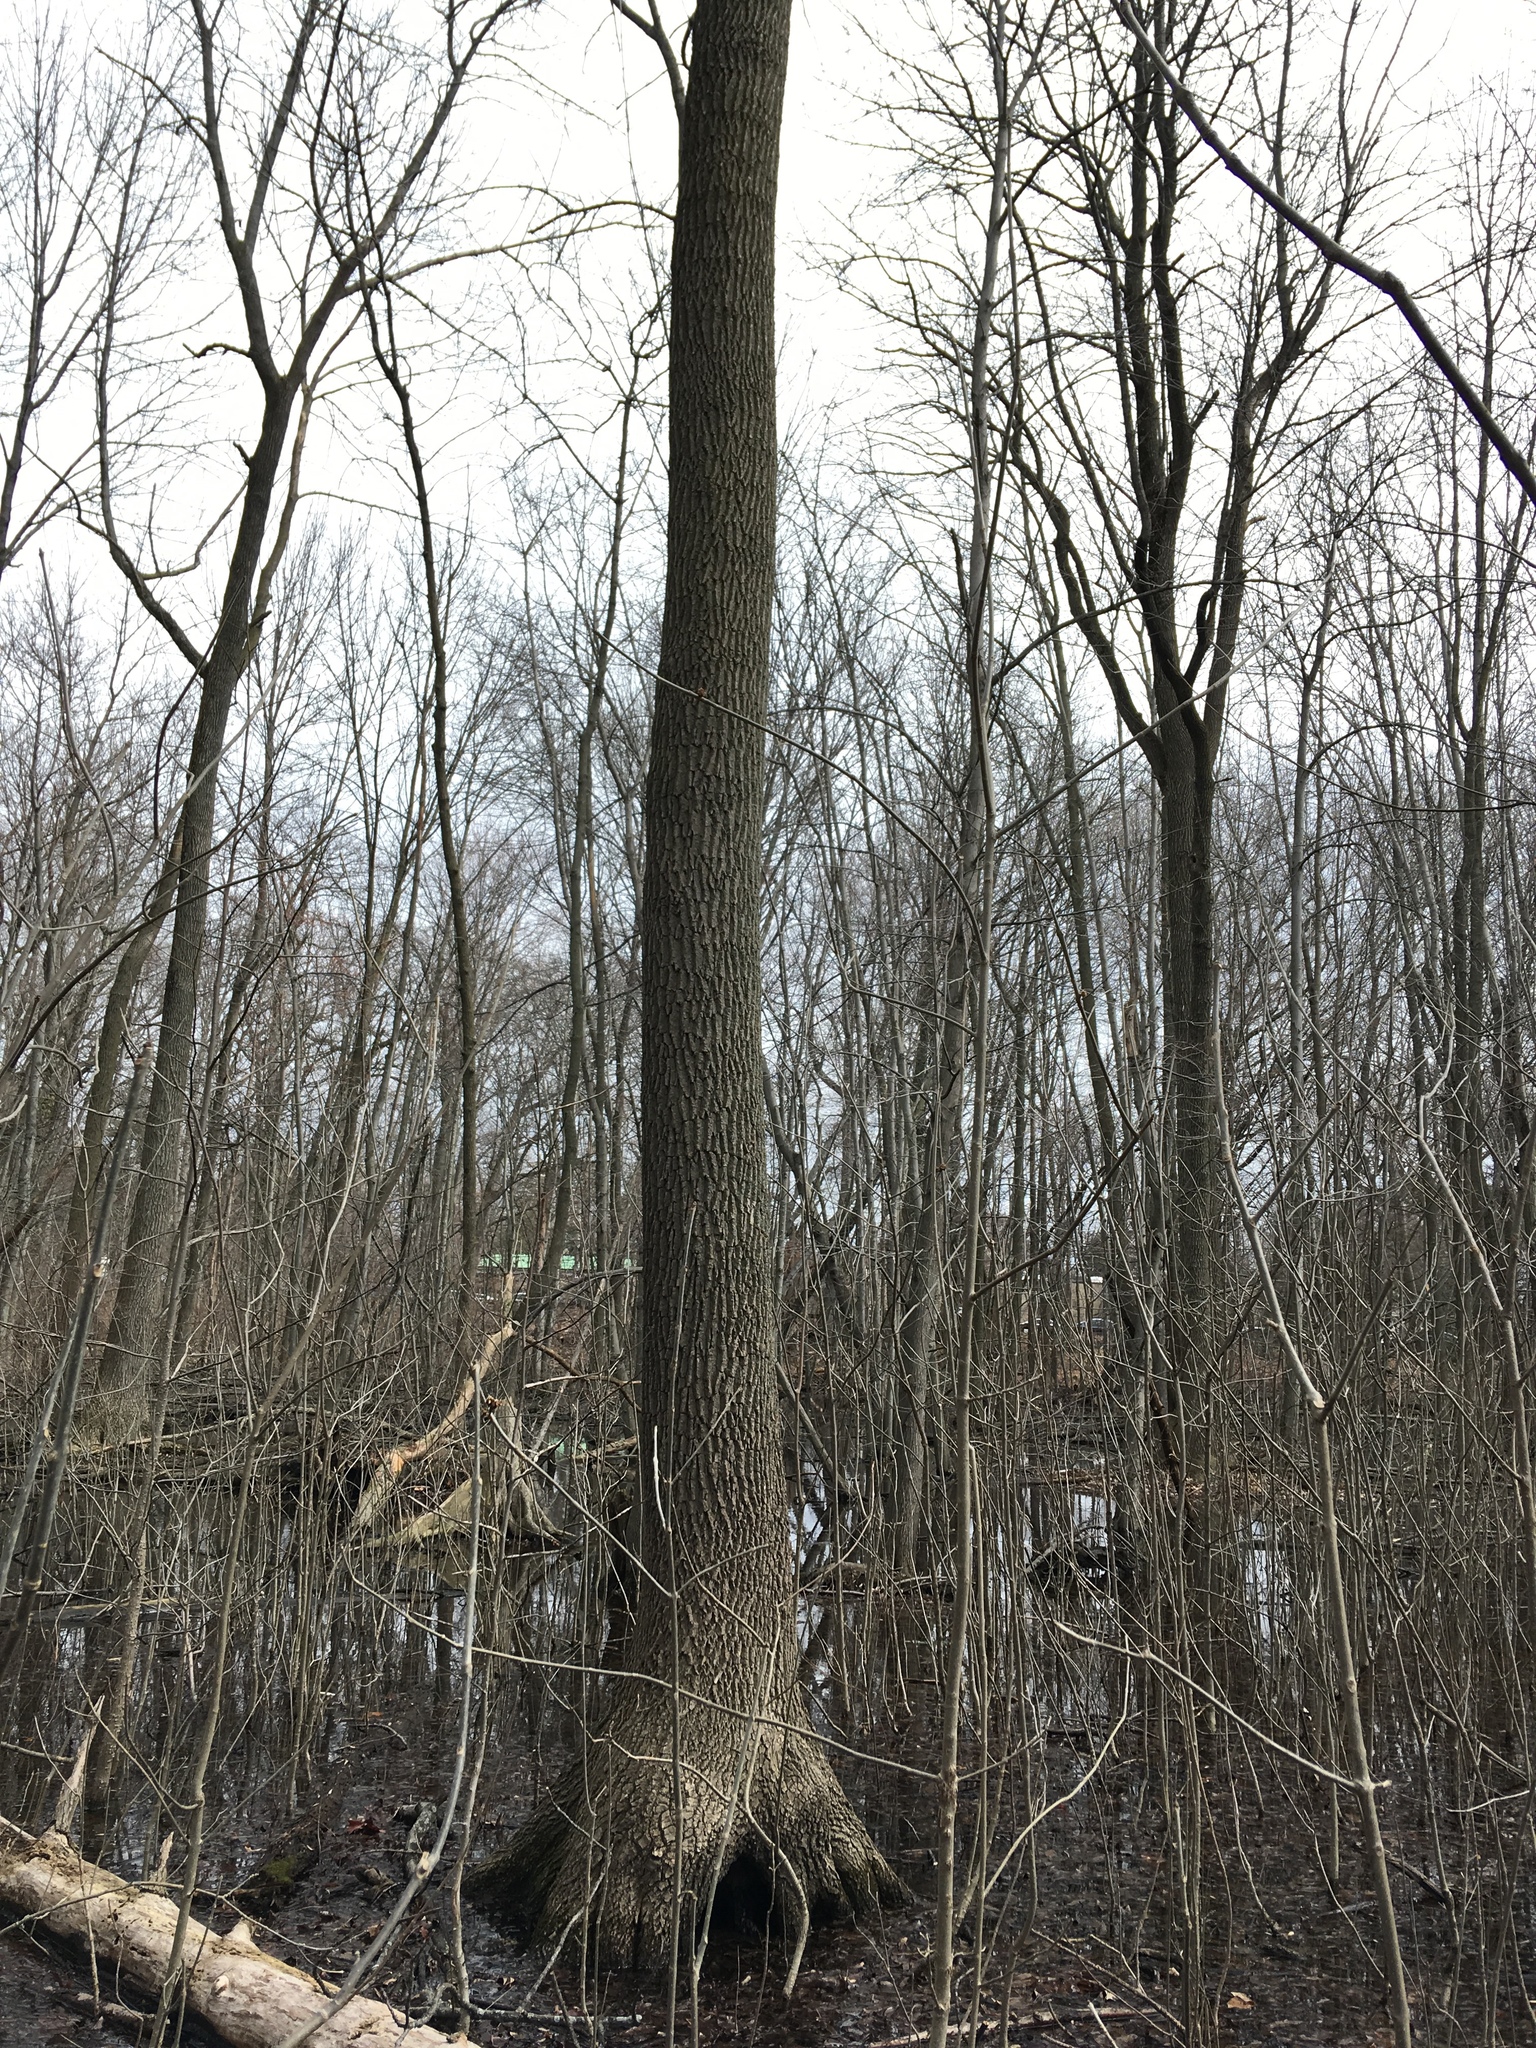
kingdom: Plantae
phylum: Tracheophyta
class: Magnoliopsida
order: Lamiales
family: Oleaceae
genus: Fraxinus
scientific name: Fraxinus profunda
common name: Pumpkin ash
